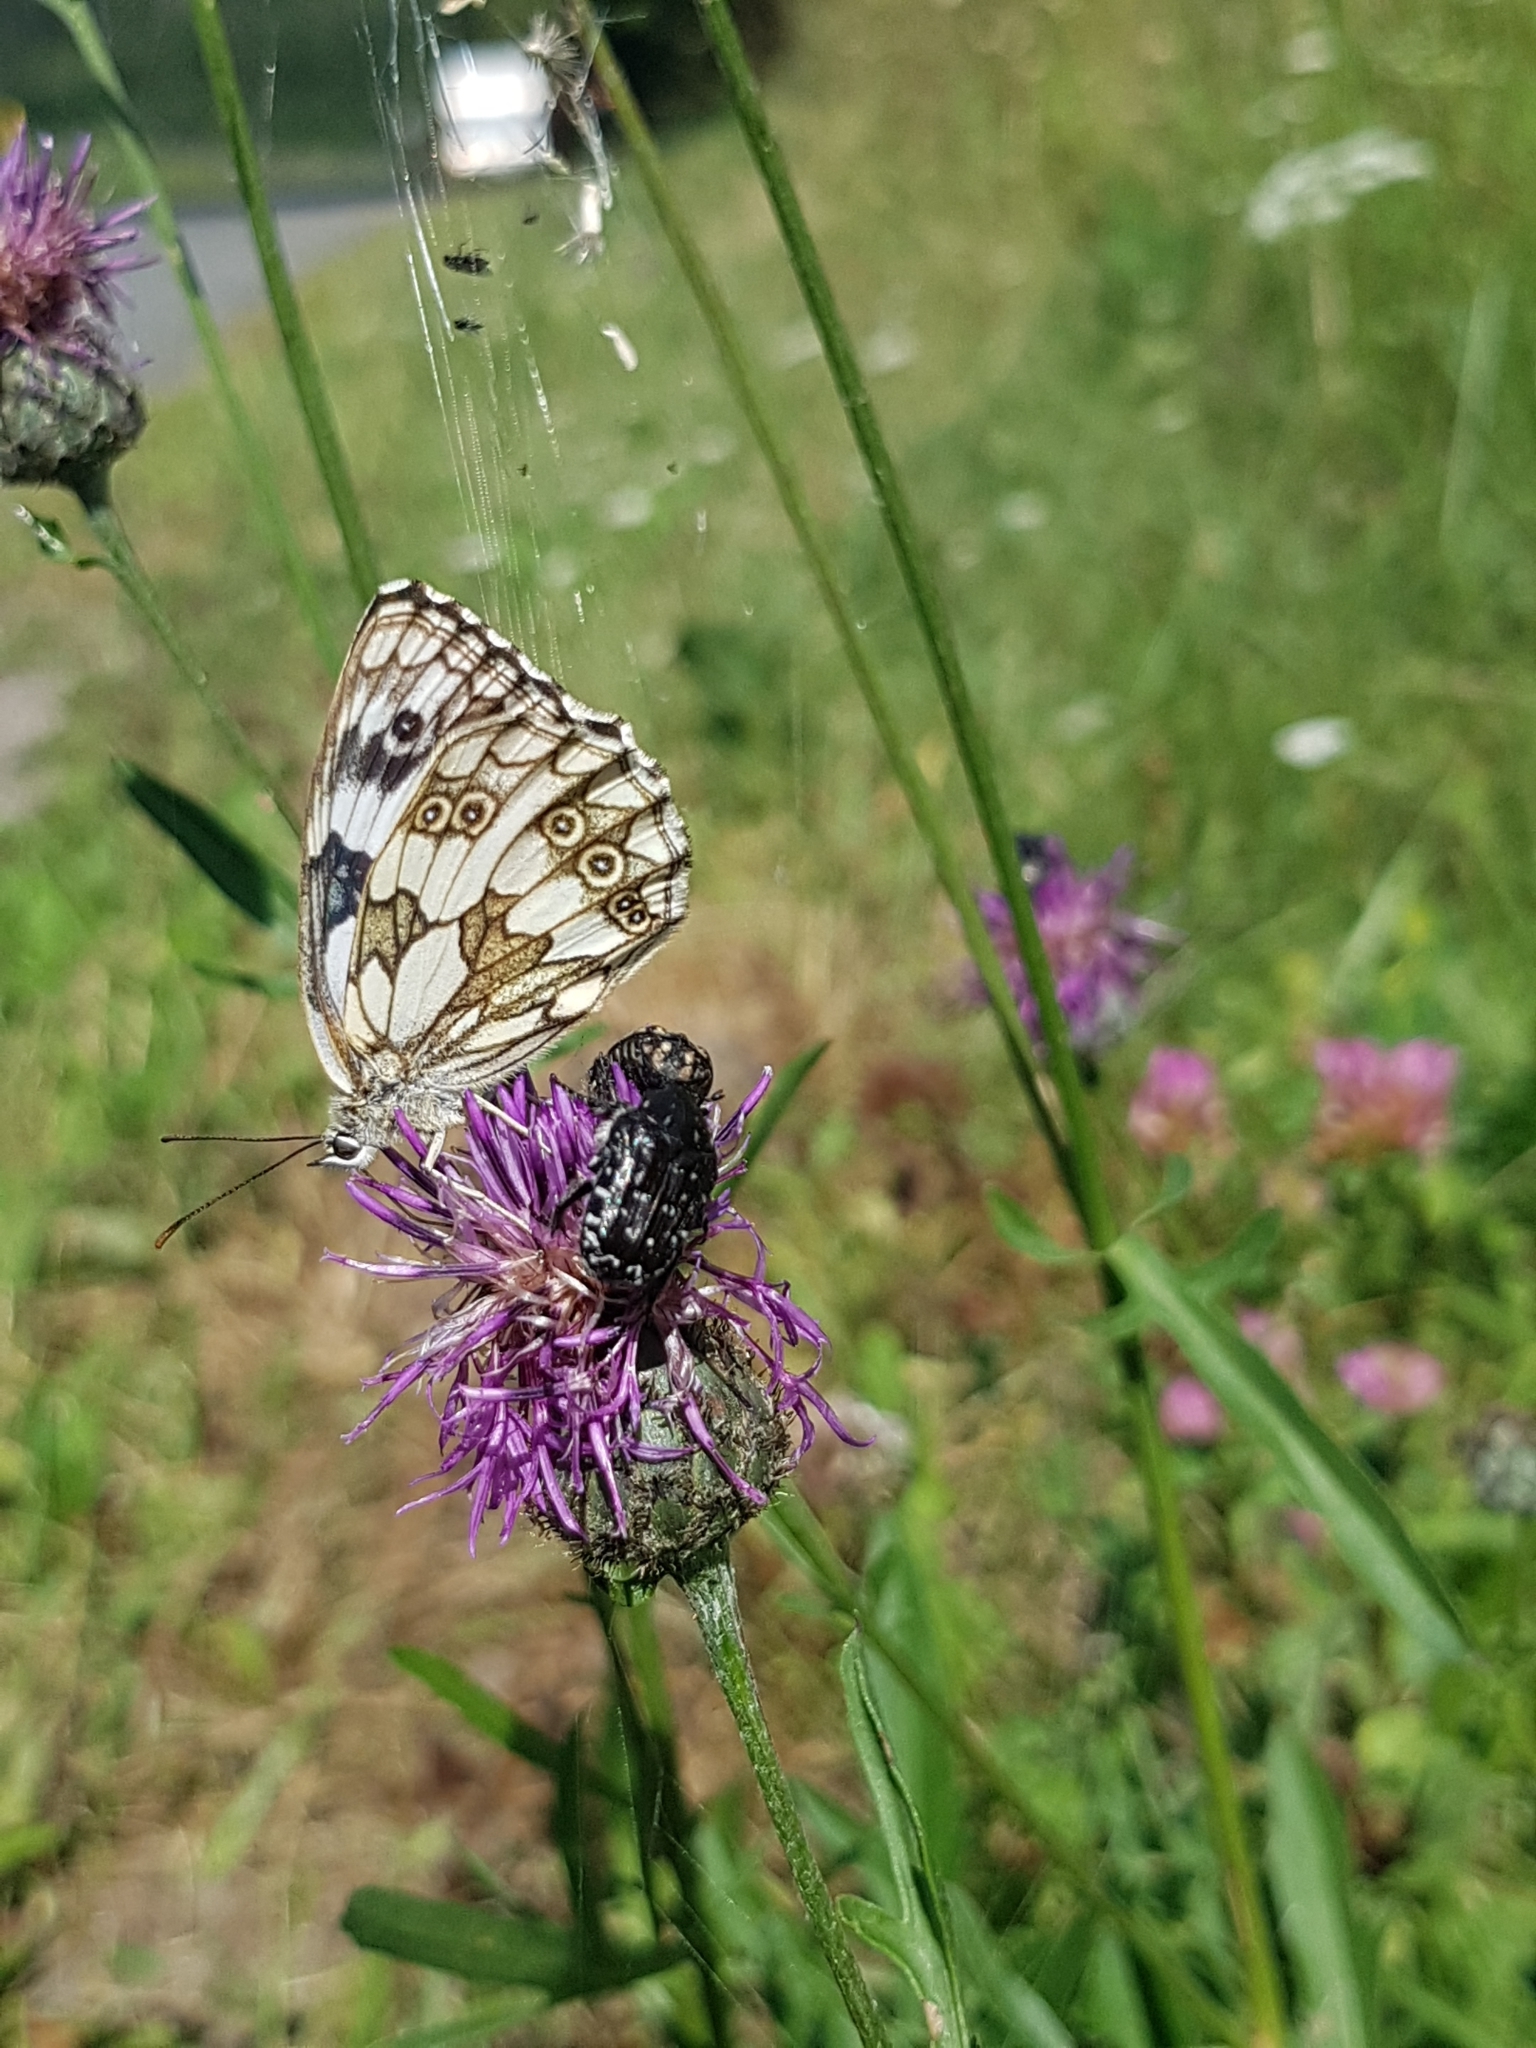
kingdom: Animalia
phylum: Arthropoda
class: Insecta
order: Lepidoptera
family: Nymphalidae
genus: Melanargia
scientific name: Melanargia galathea
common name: Marbled white
